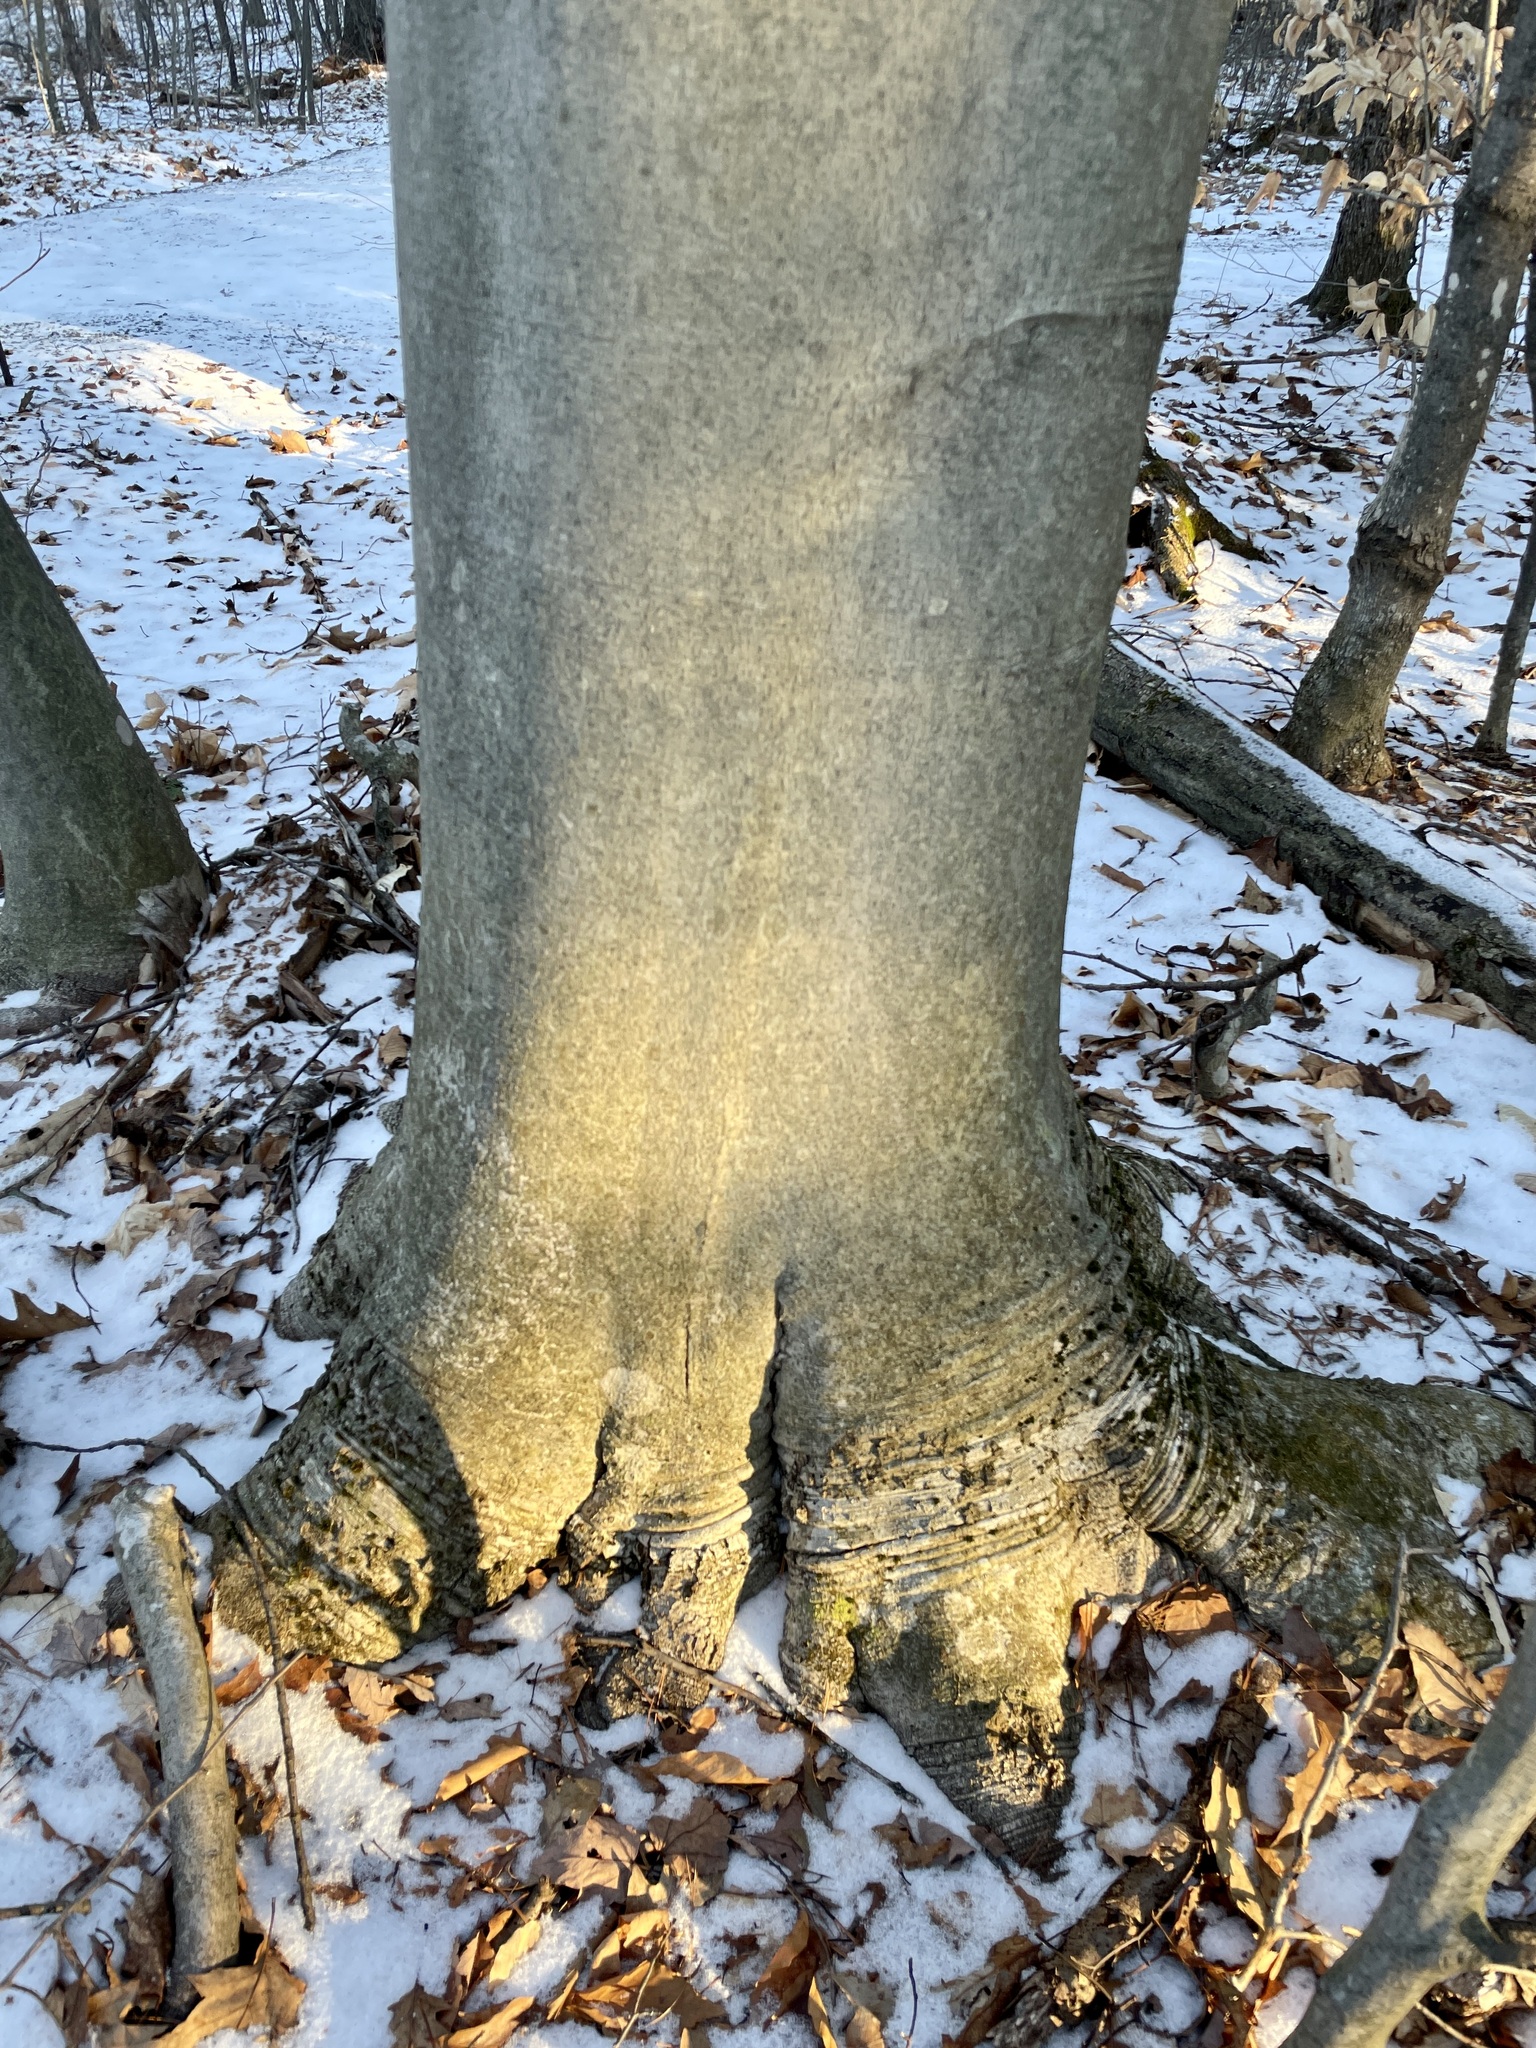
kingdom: Plantae
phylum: Tracheophyta
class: Magnoliopsida
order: Fagales
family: Fagaceae
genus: Fagus
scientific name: Fagus grandifolia
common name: American beech
